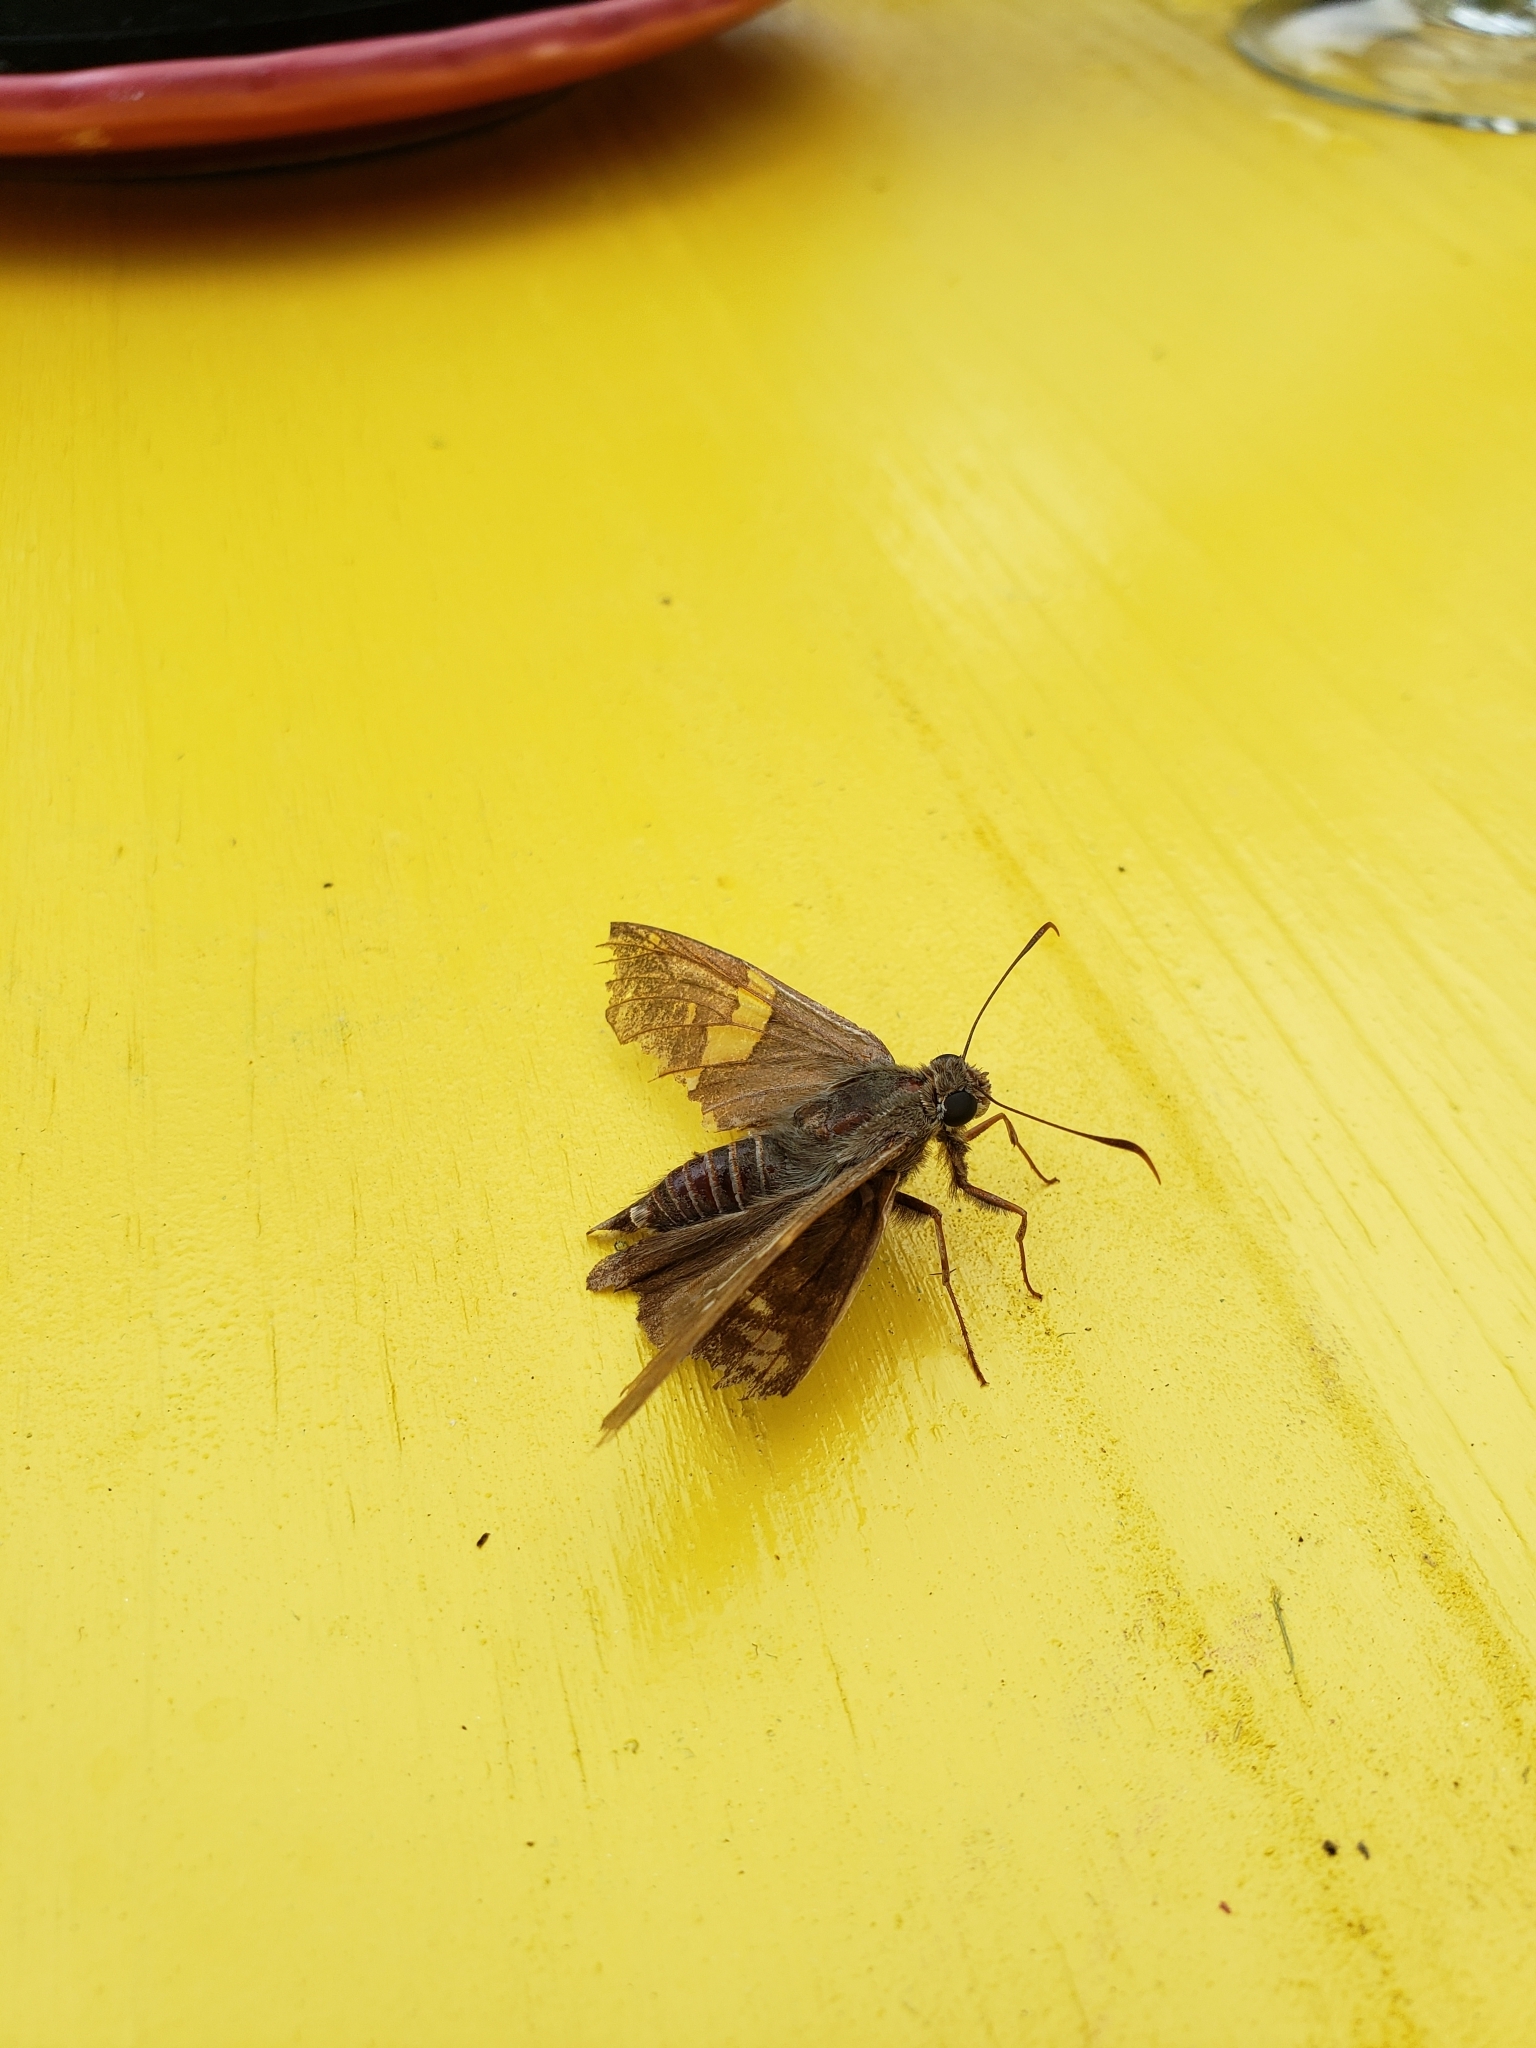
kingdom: Animalia
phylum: Arthropoda
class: Insecta
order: Lepidoptera
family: Hesperiidae
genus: Epargyreus
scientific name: Epargyreus clarus
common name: Silver-spotted skipper
